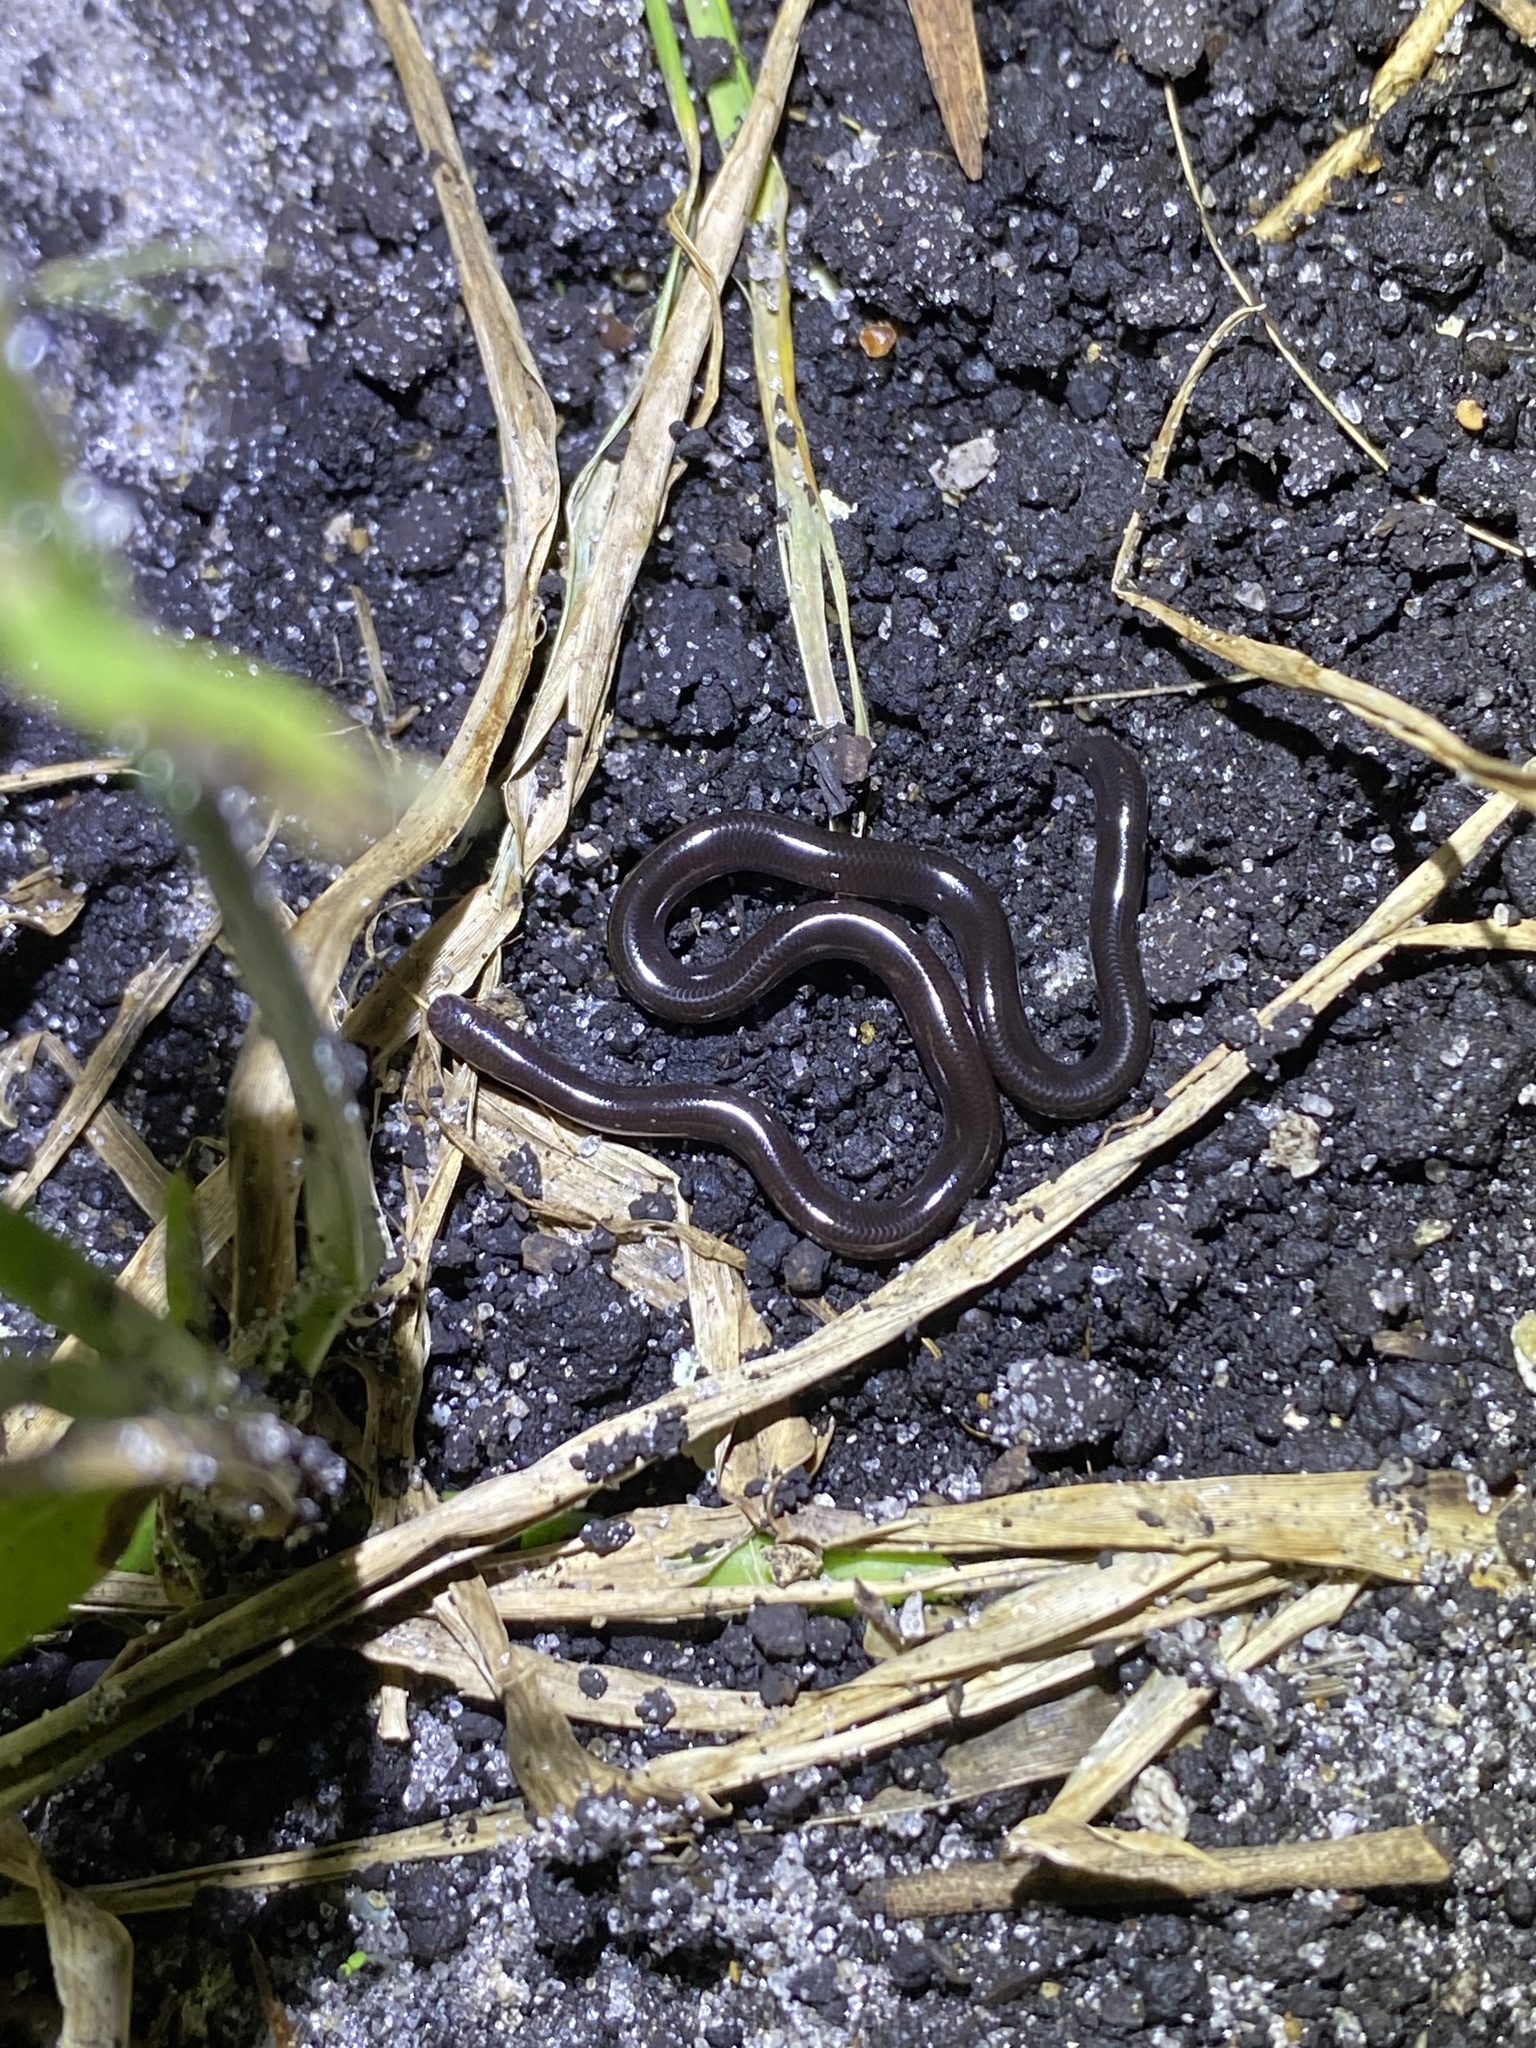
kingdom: Animalia
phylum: Chordata
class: Squamata
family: Typhlopidae
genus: Indotyphlops
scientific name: Indotyphlops braminus
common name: Brahminy blindsnake
